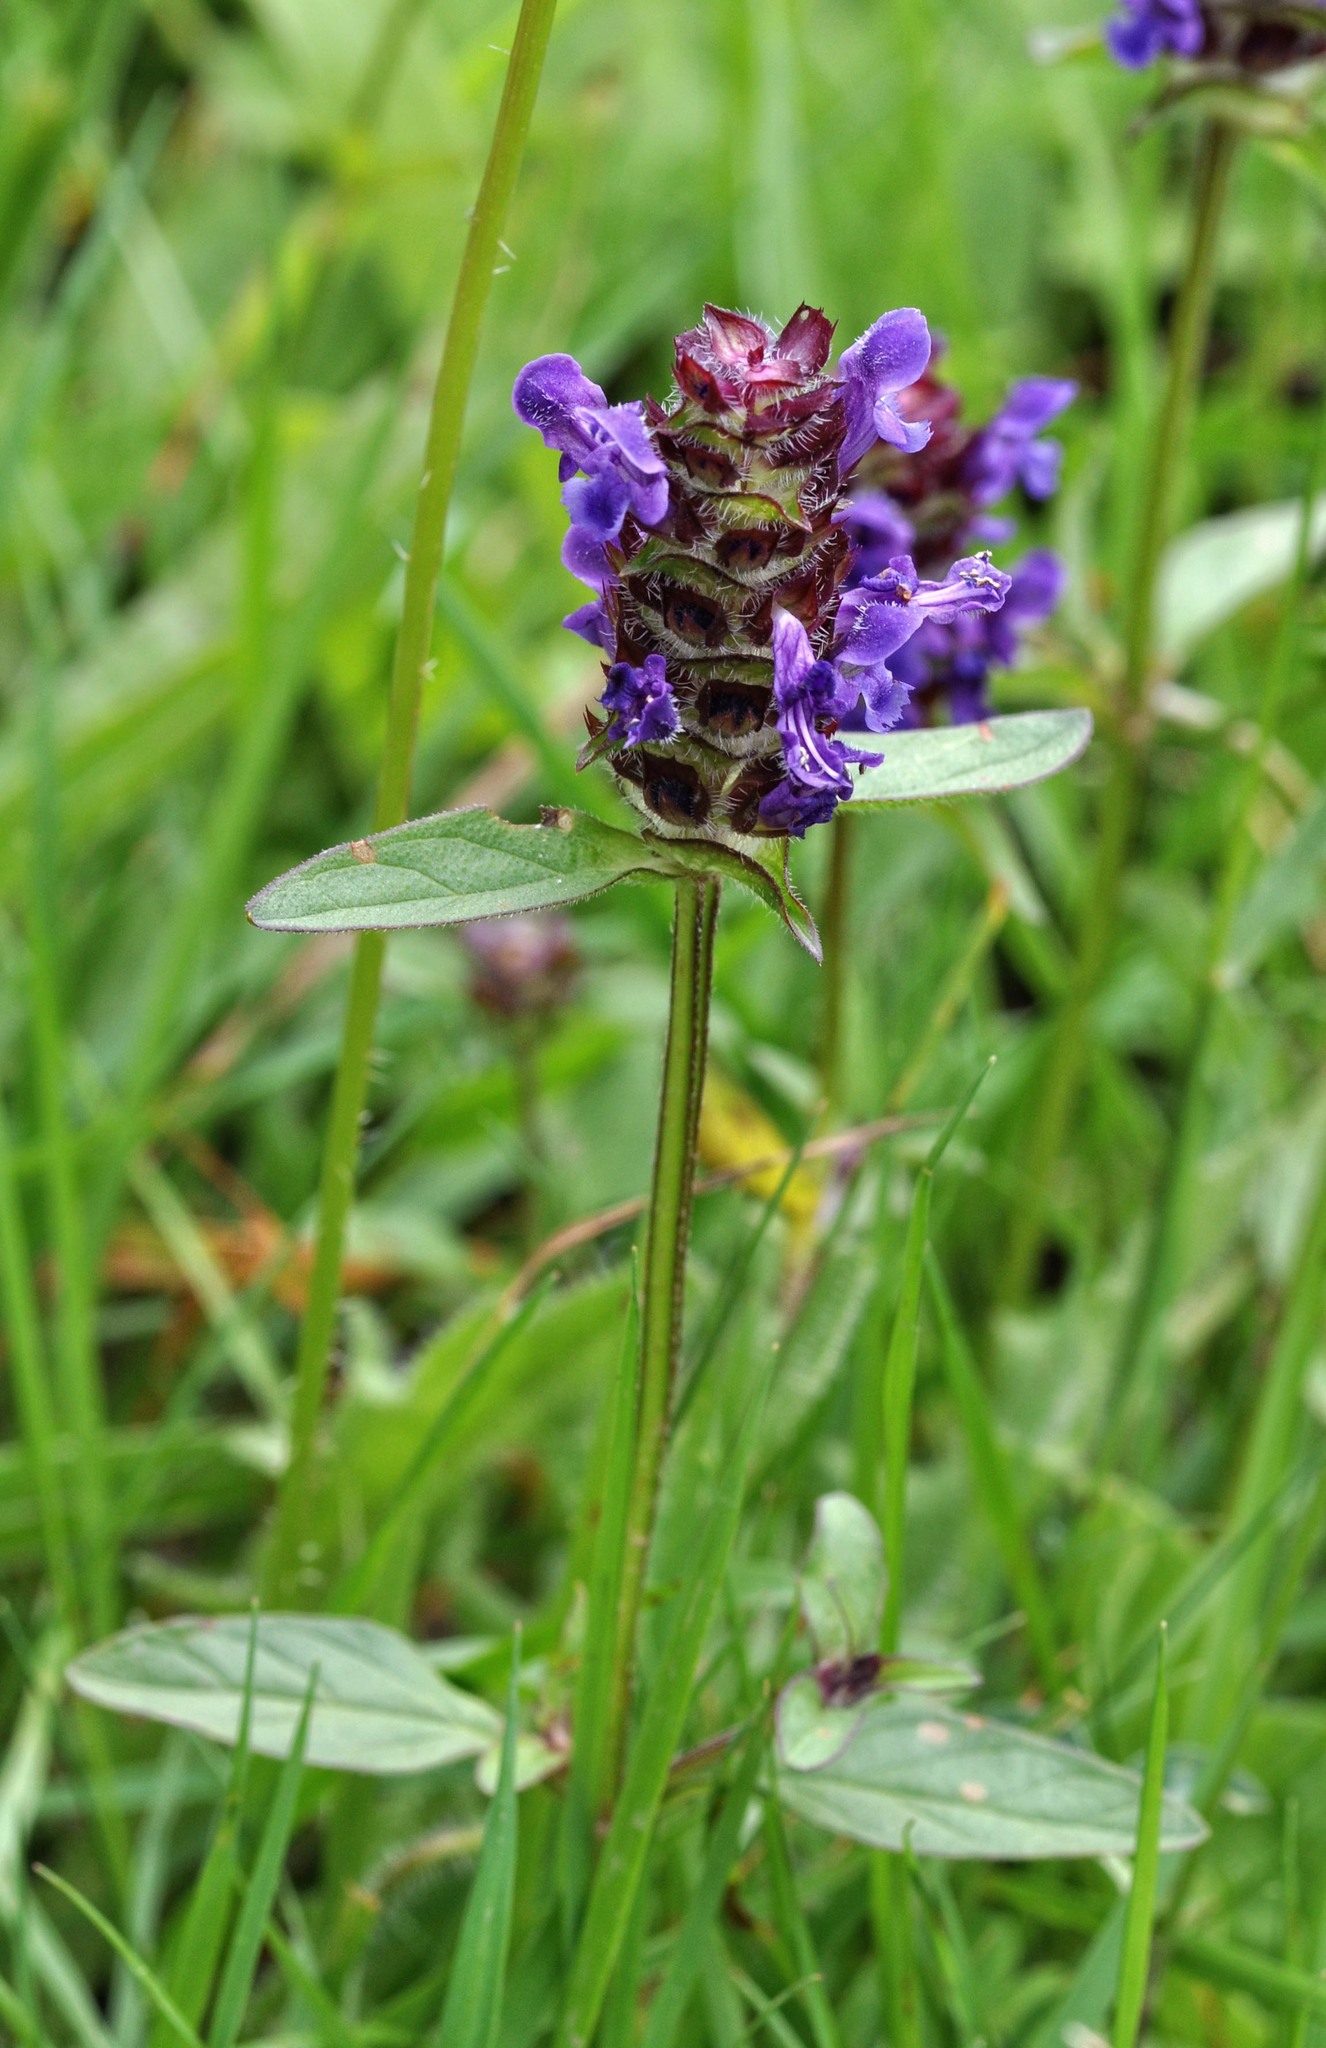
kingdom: Plantae
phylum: Tracheophyta
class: Magnoliopsida
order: Lamiales
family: Lamiaceae
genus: Prunella
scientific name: Prunella vulgaris
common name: Heal-all
